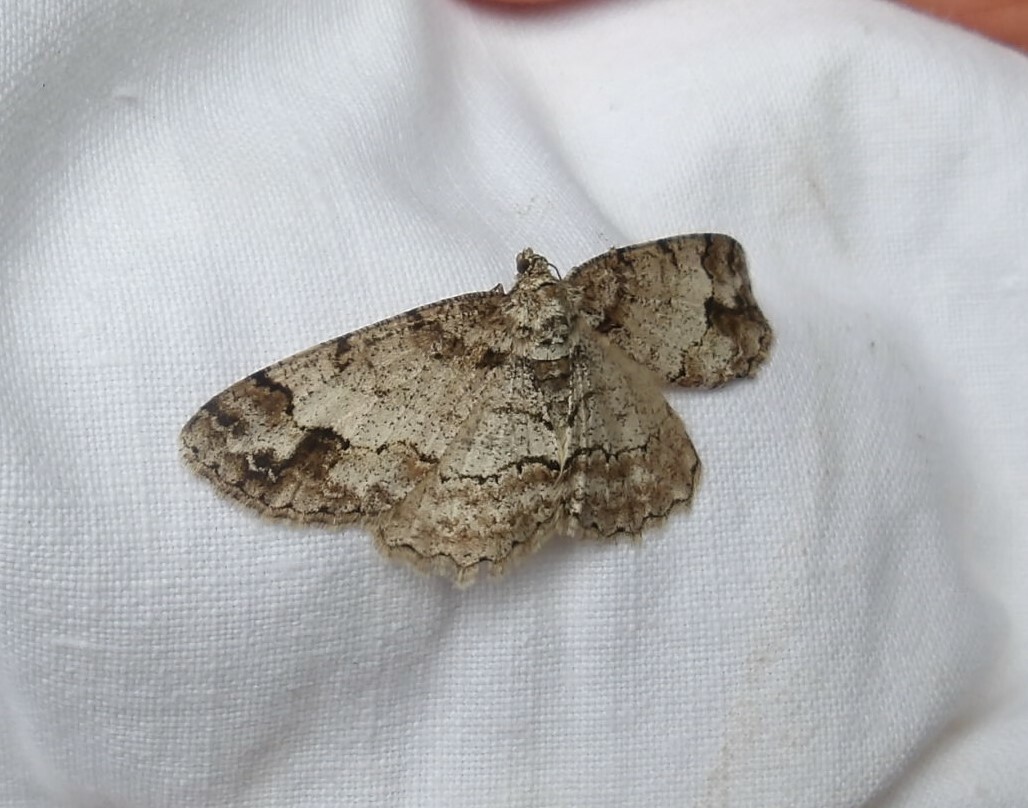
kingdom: Animalia
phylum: Arthropoda
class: Insecta
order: Lepidoptera
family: Geometridae
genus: Paradarisa
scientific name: Paradarisa consonaria
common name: Square spot
